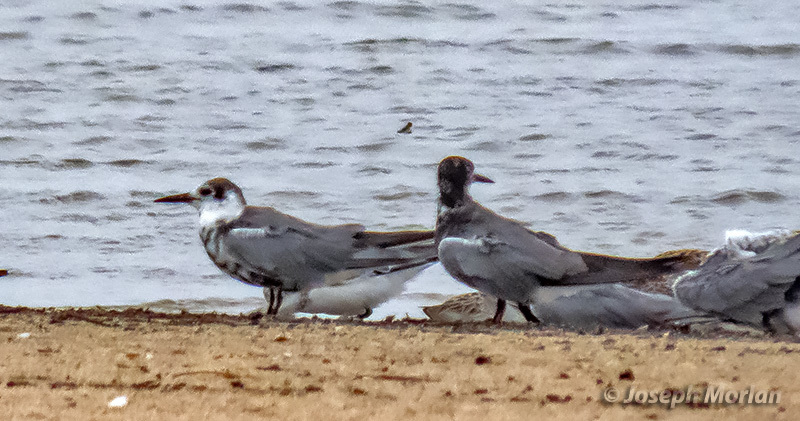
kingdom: Animalia
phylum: Chordata
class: Aves
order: Charadriiformes
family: Laridae
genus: Chlidonias
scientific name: Chlidonias niger
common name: Black tern
